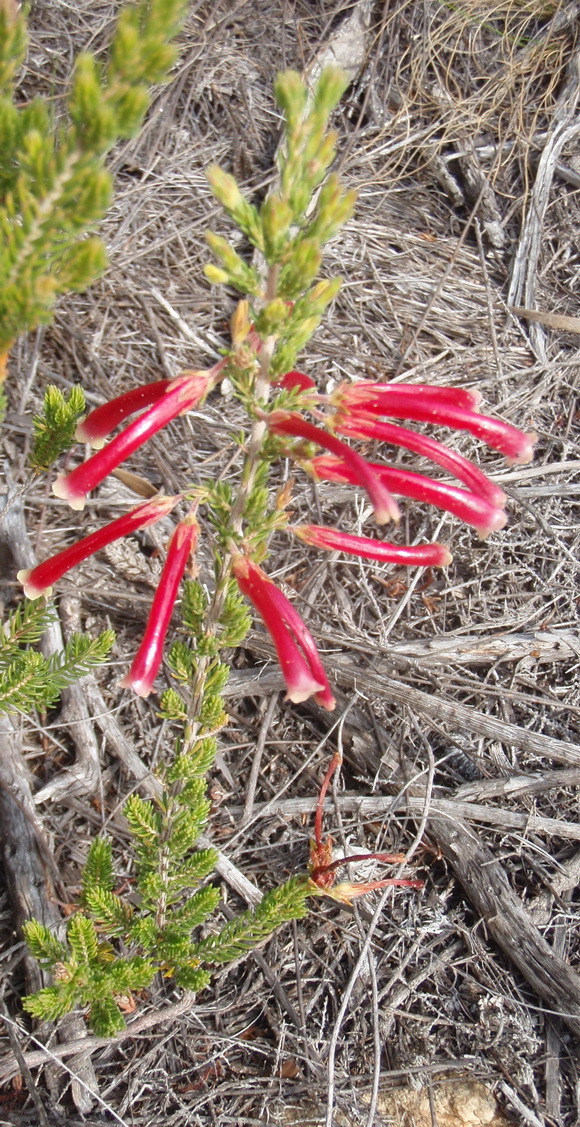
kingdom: Plantae
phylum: Tracheophyta
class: Magnoliopsida
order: Ericales
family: Ericaceae
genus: Erica
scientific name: Erica discolor
